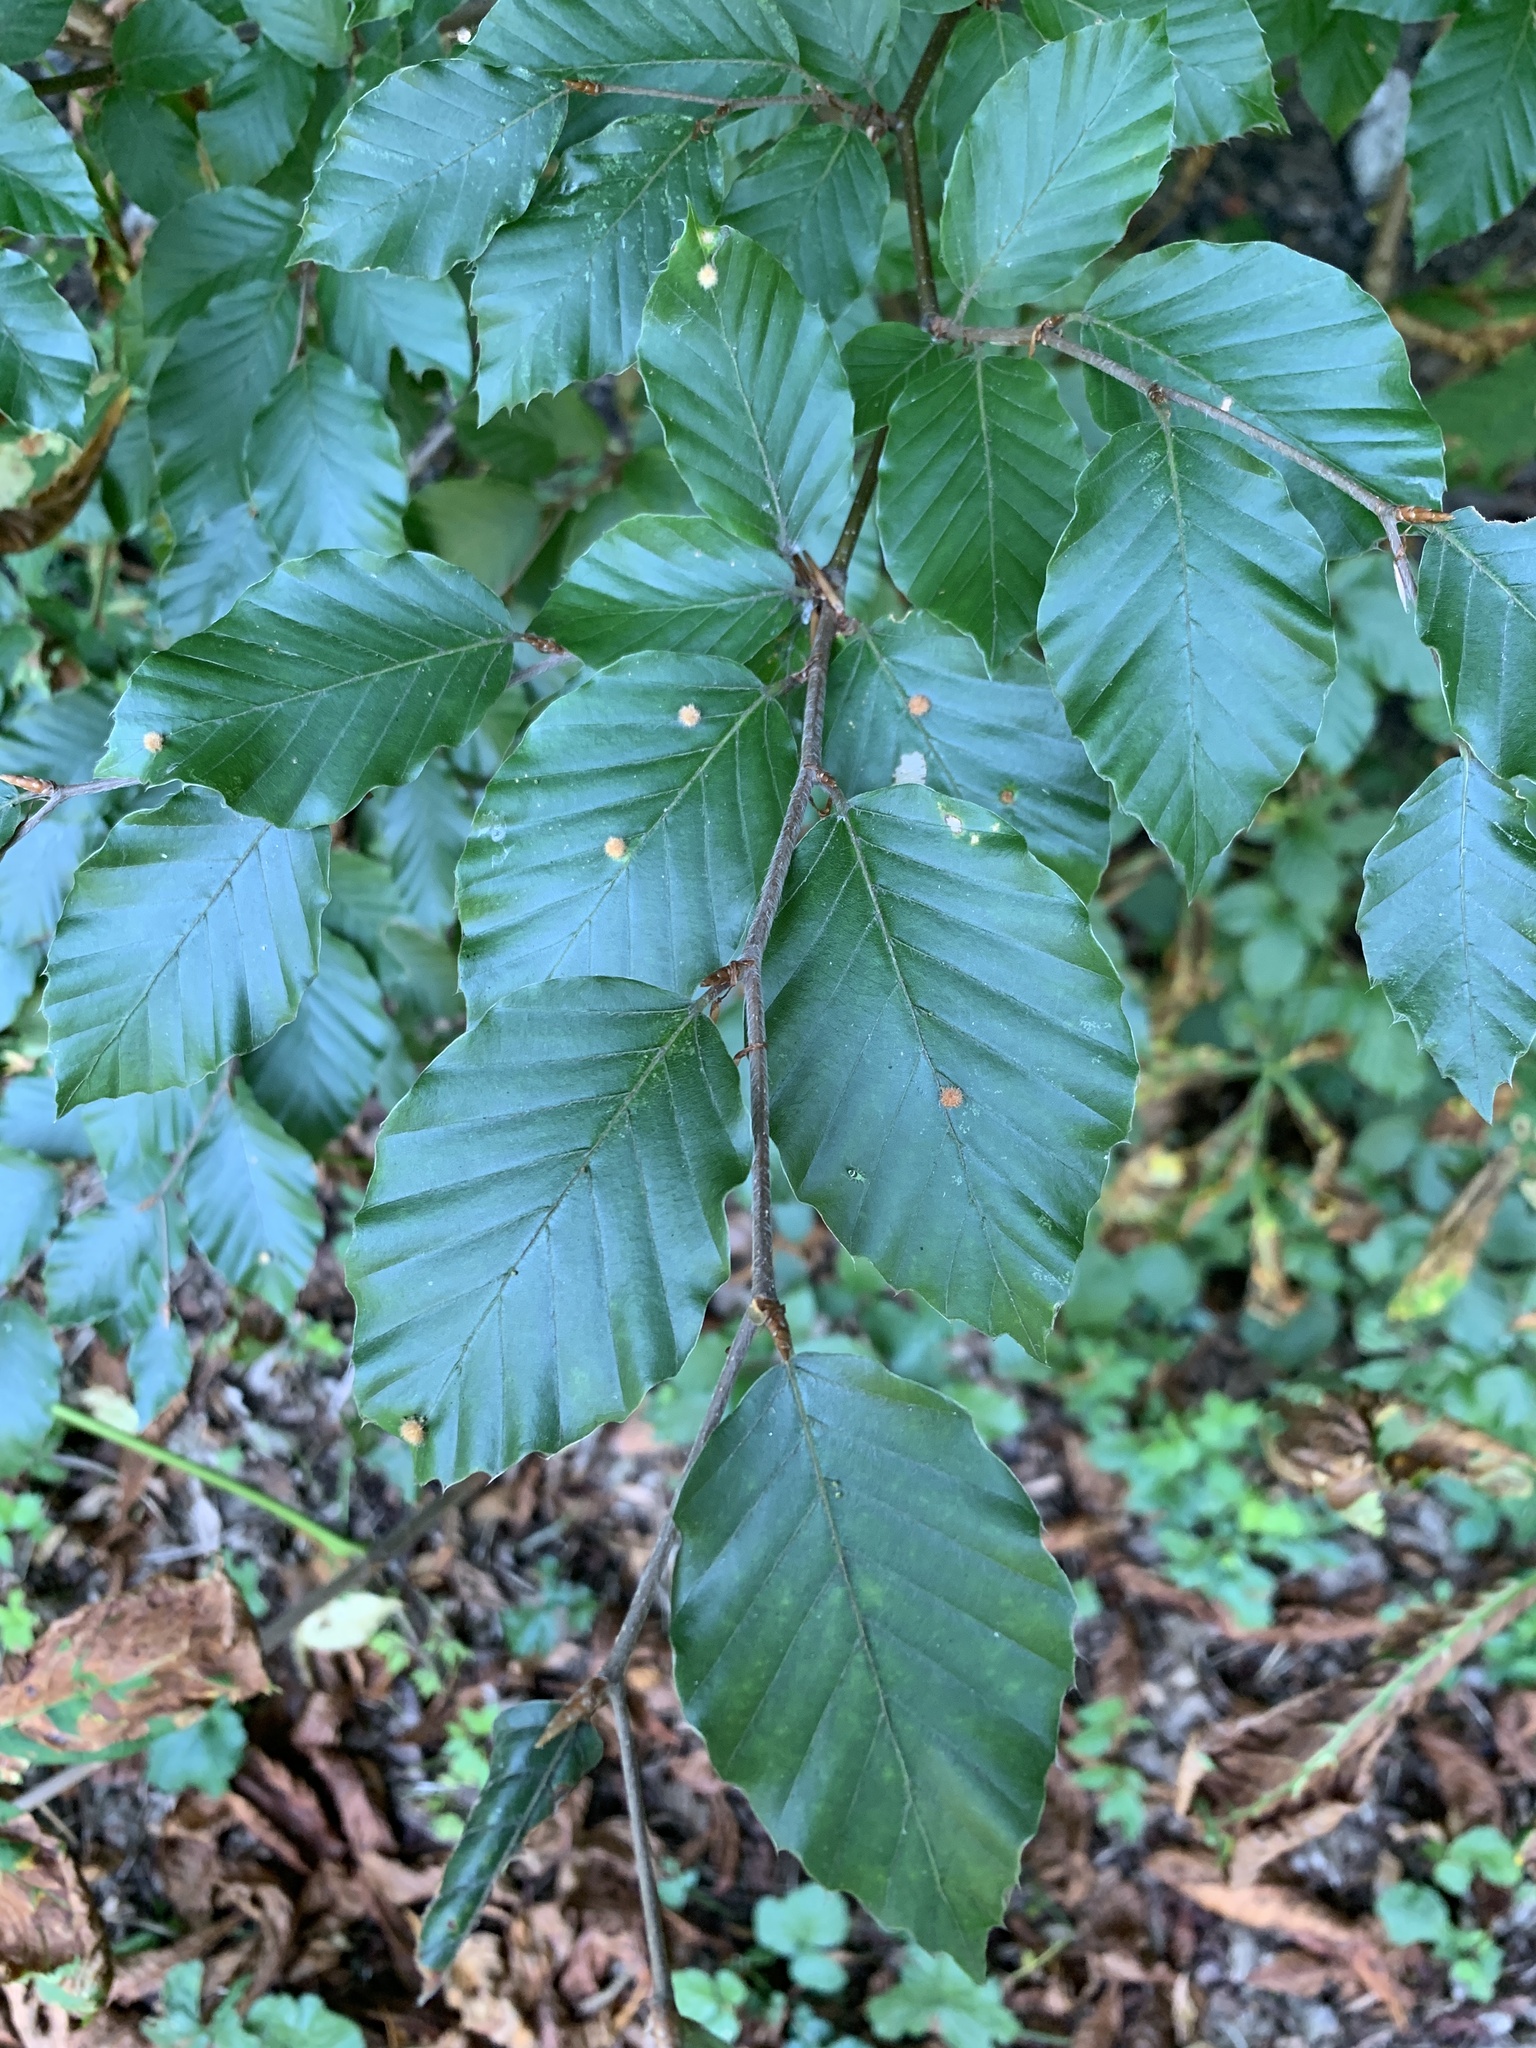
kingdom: Plantae
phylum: Tracheophyta
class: Magnoliopsida
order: Fagales
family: Fagaceae
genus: Fagus
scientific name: Fagus sylvatica
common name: Beech
